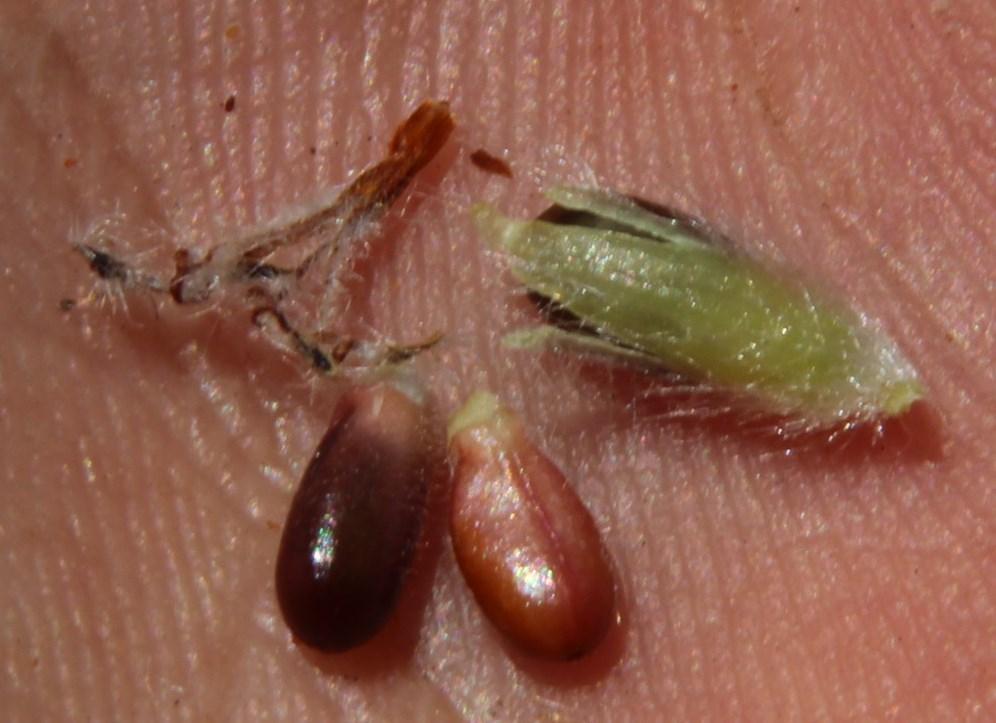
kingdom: Plantae
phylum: Tracheophyta
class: Magnoliopsida
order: Proteales
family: Proteaceae
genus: Sorocephalus
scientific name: Sorocephalus alopecurus
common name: Woolly-stalk clusterhead
